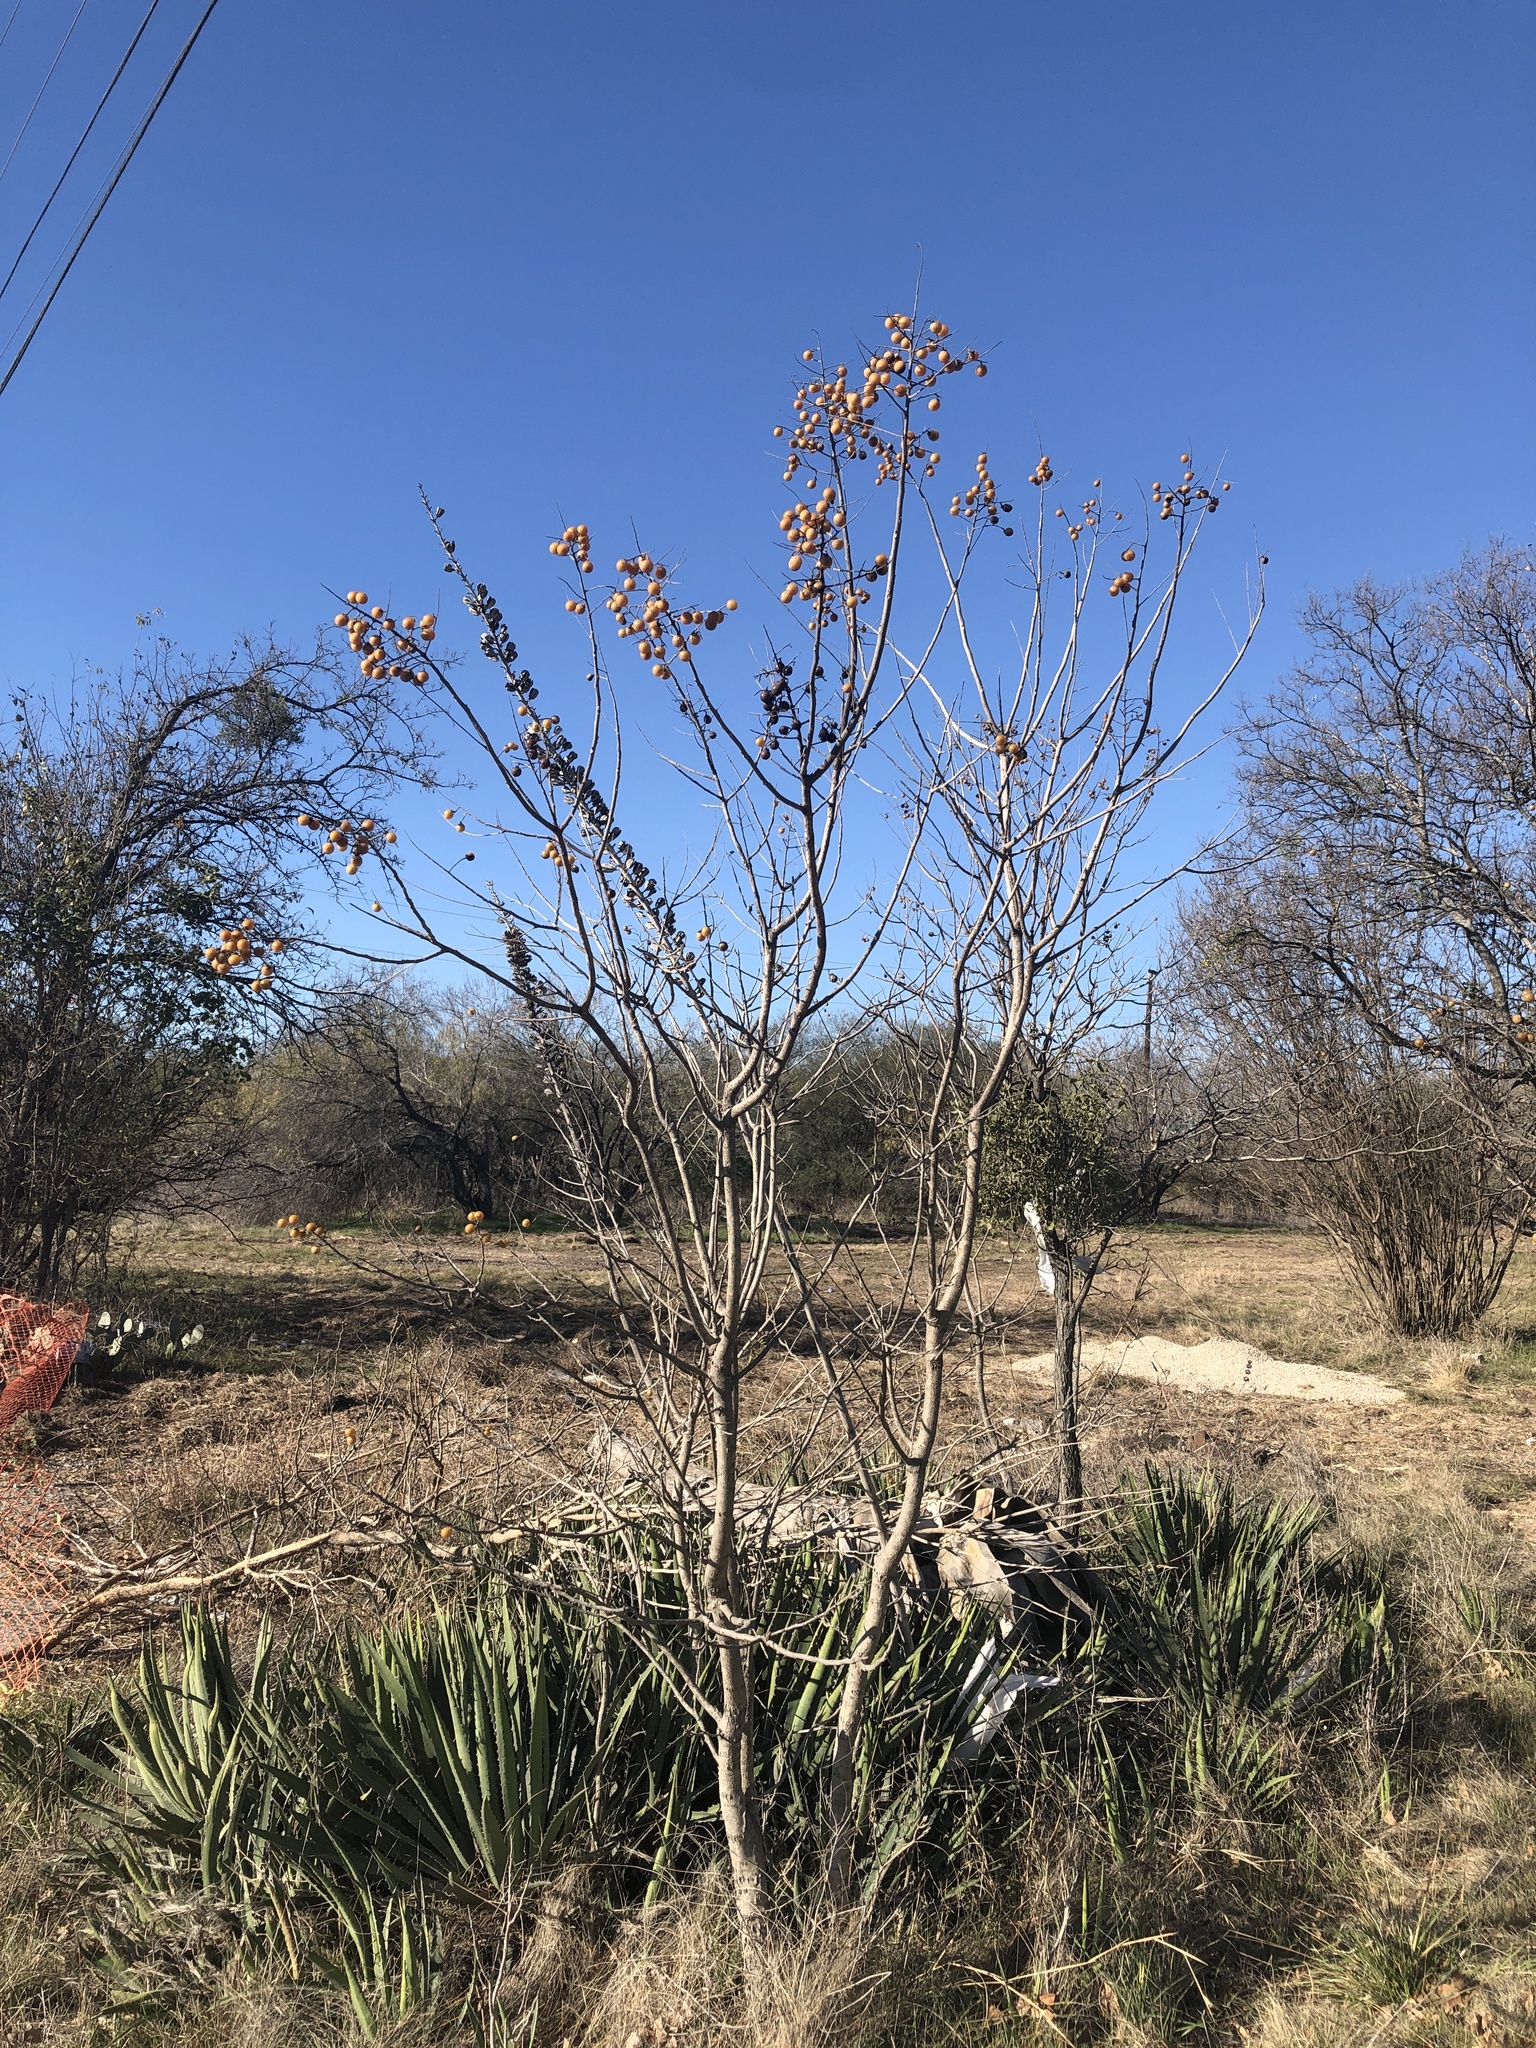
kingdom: Plantae
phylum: Tracheophyta
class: Magnoliopsida
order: Sapindales
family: Sapindaceae
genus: Sapindus
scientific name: Sapindus drummondii
